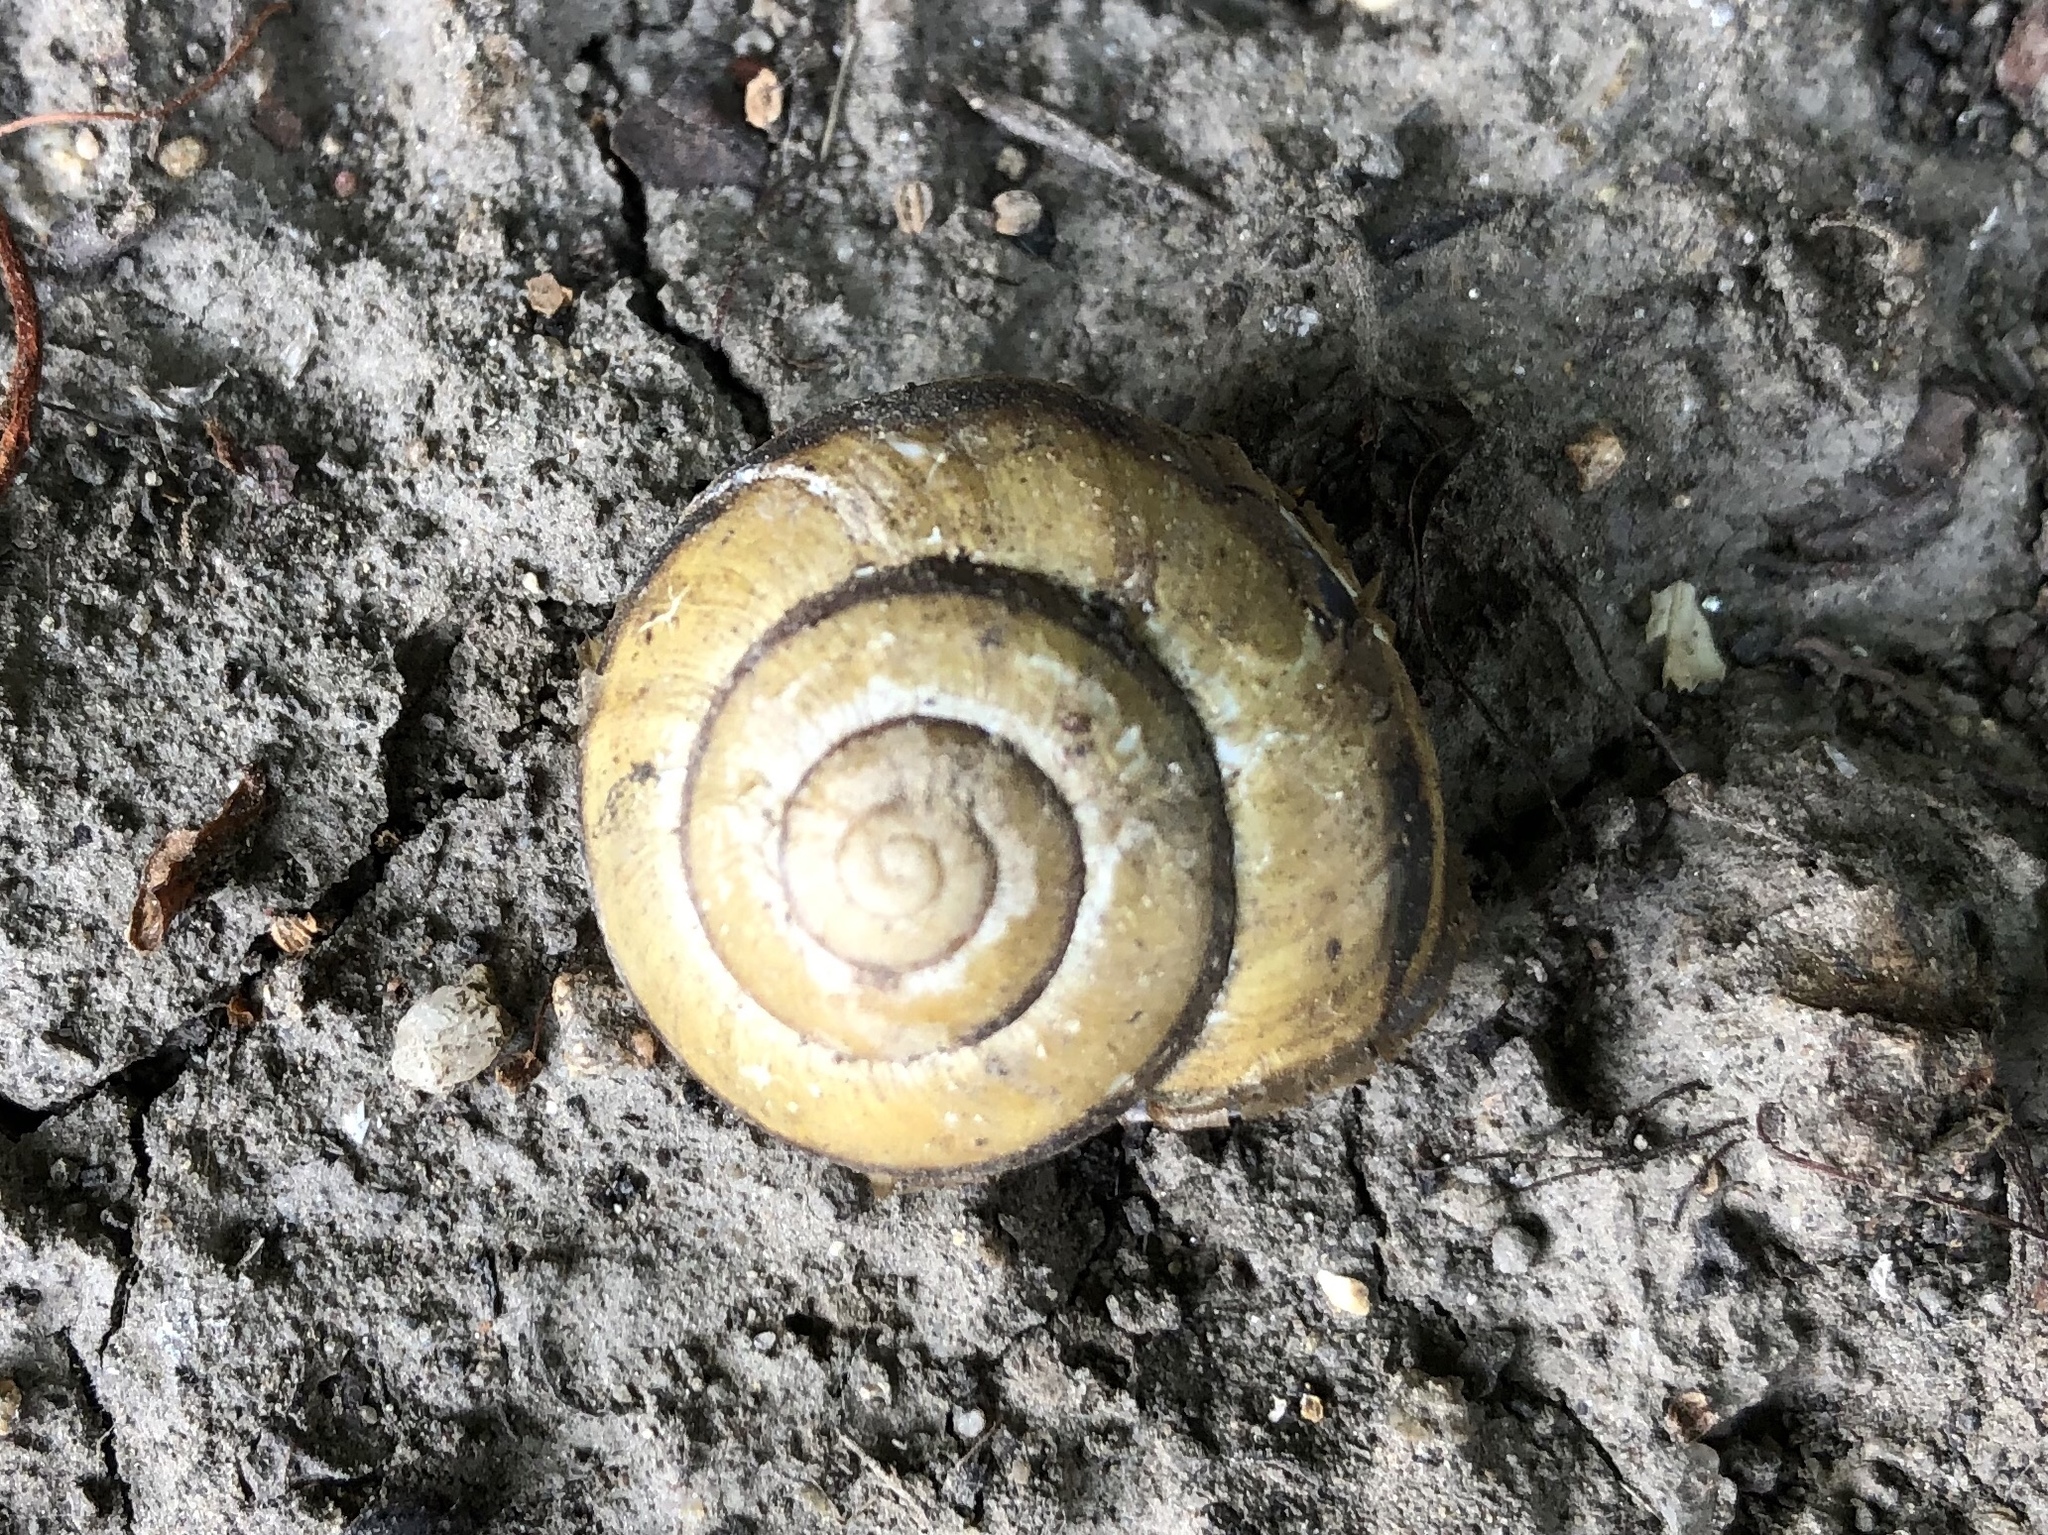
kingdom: Animalia
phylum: Mollusca
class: Gastropoda
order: Stylommatophora
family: Helicidae
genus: Cepaea
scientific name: Cepaea nemoralis
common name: Grovesnail
